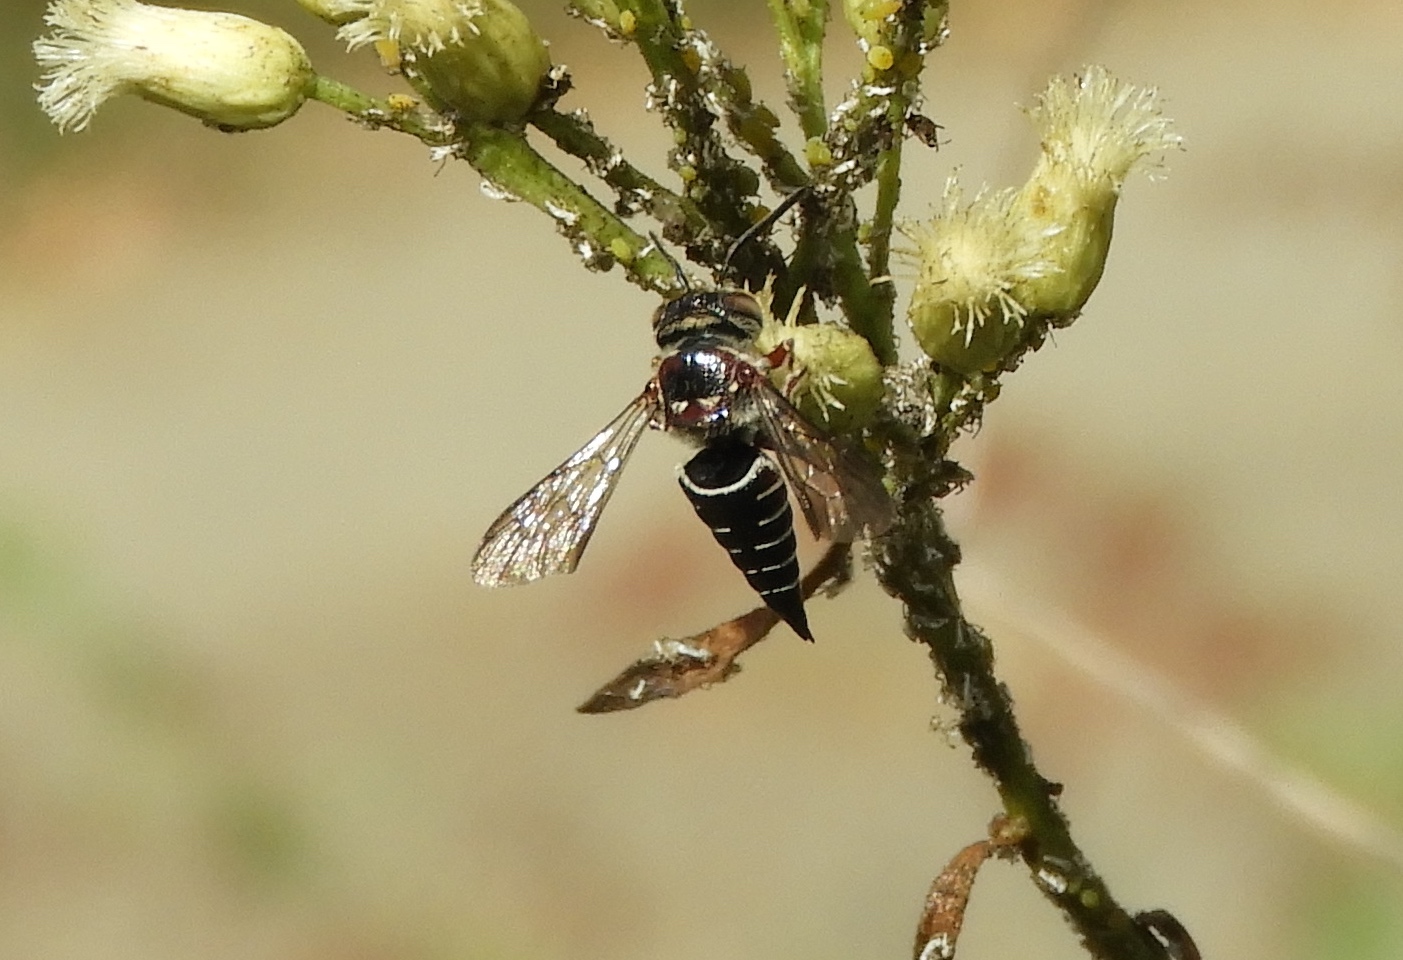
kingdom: Animalia
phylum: Arthropoda
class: Insecta
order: Hymenoptera
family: Megachilidae
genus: Coelioxys
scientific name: Coelioxys
